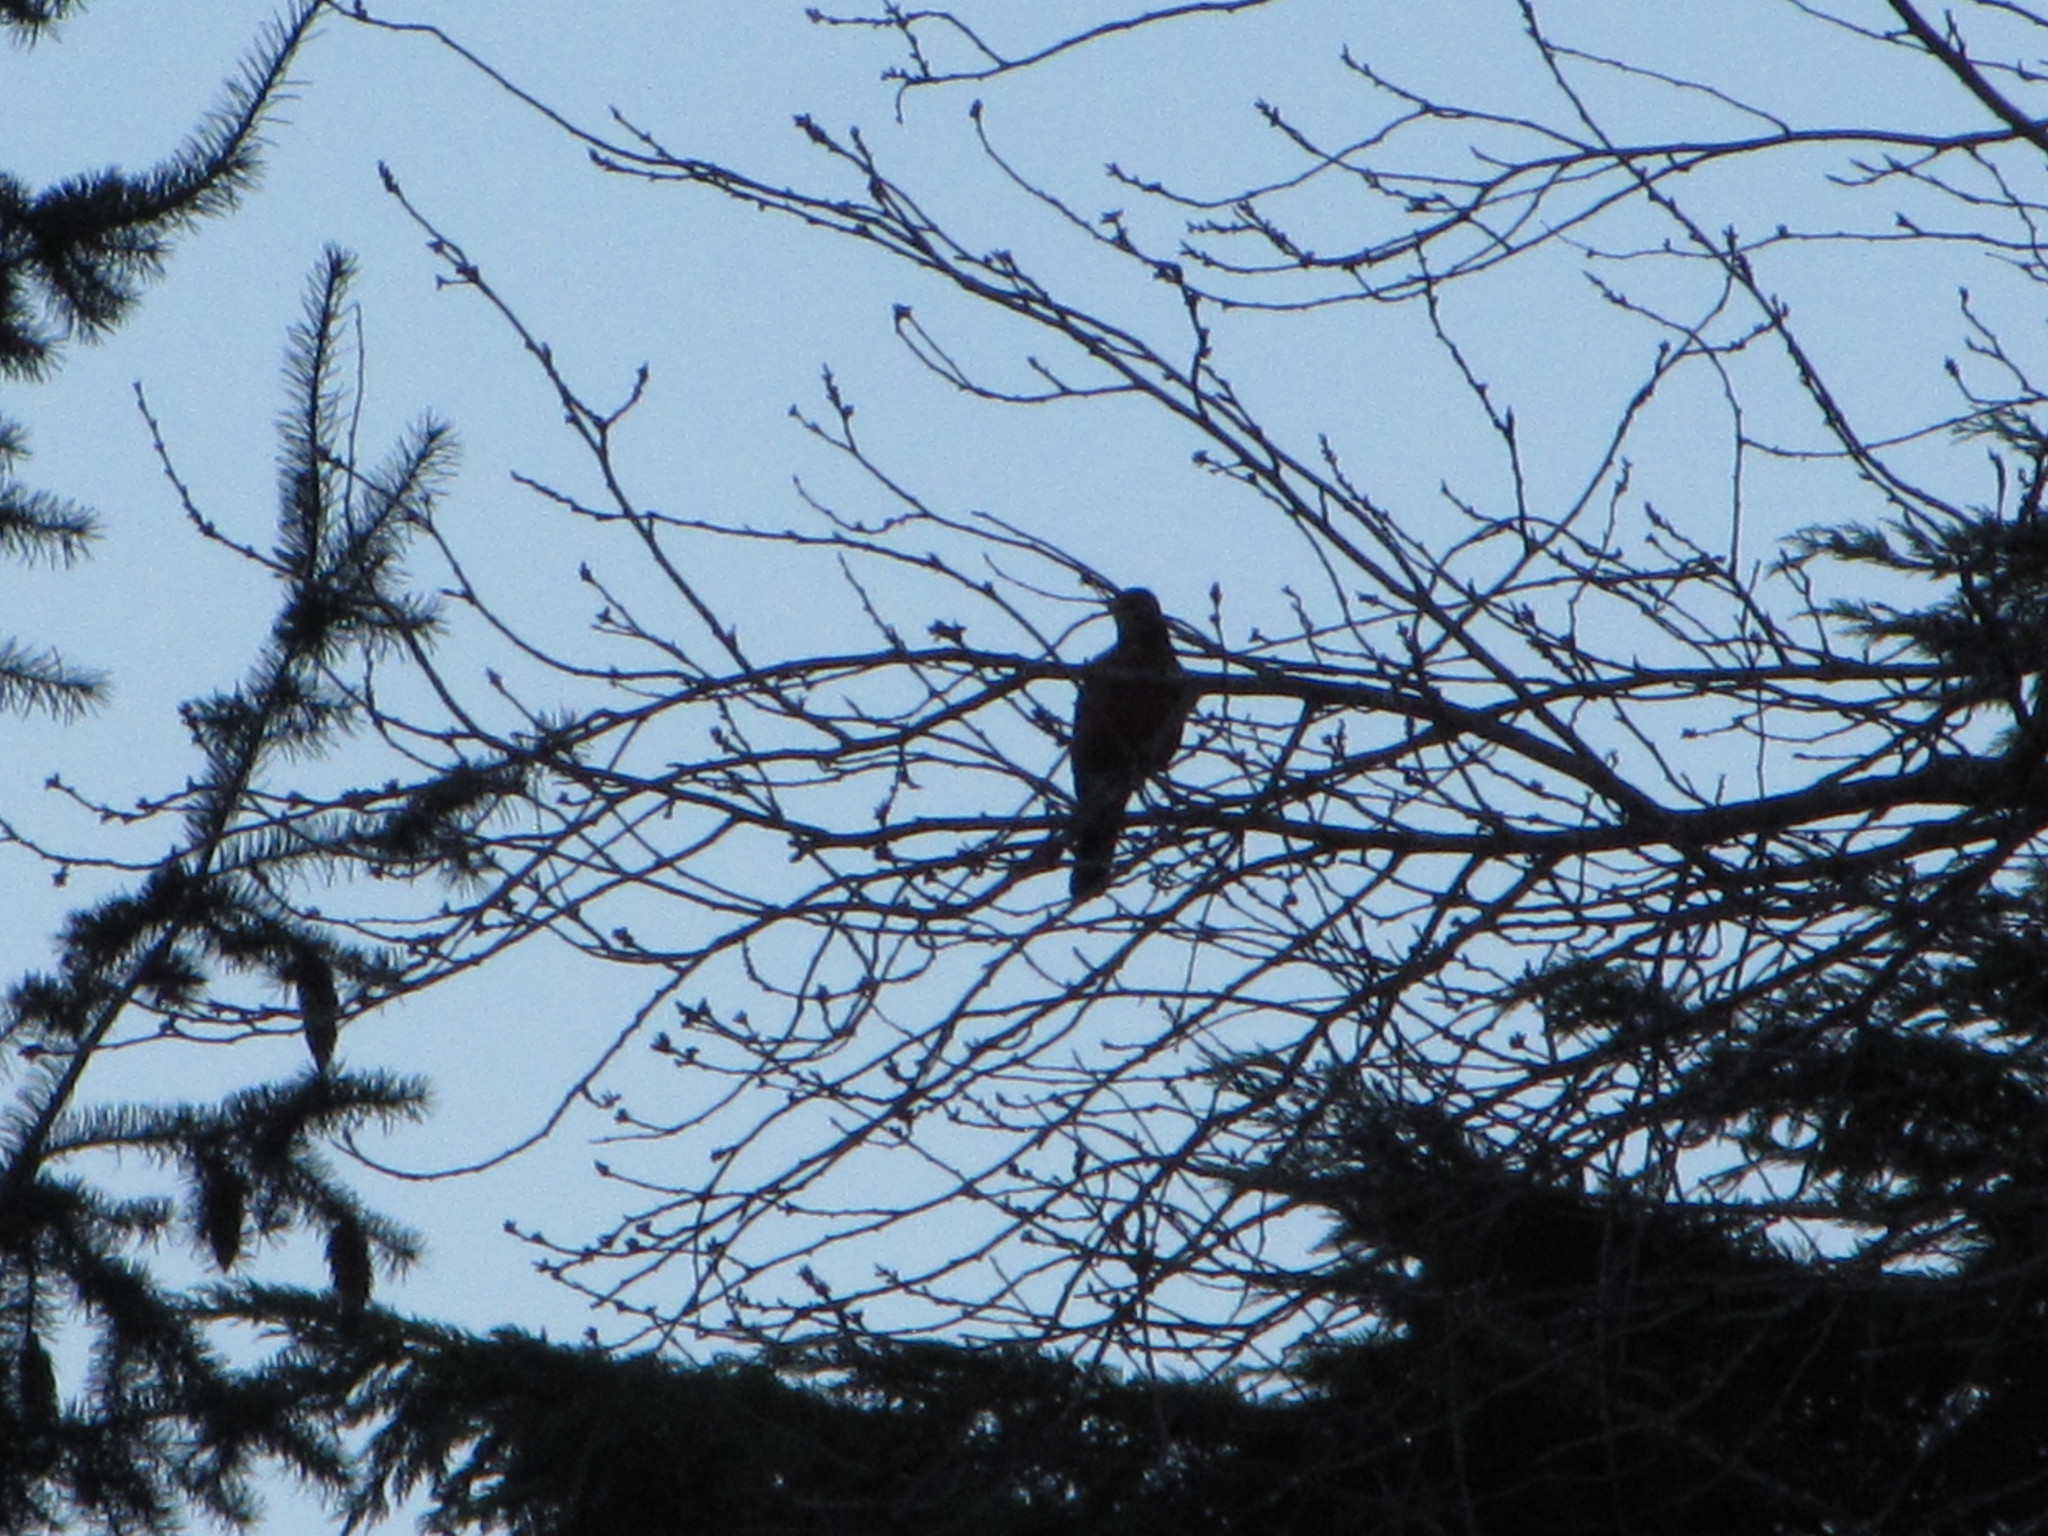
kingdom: Animalia
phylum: Chordata
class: Aves
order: Passeriformes
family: Turdidae
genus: Turdus
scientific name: Turdus migratorius
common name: American robin
